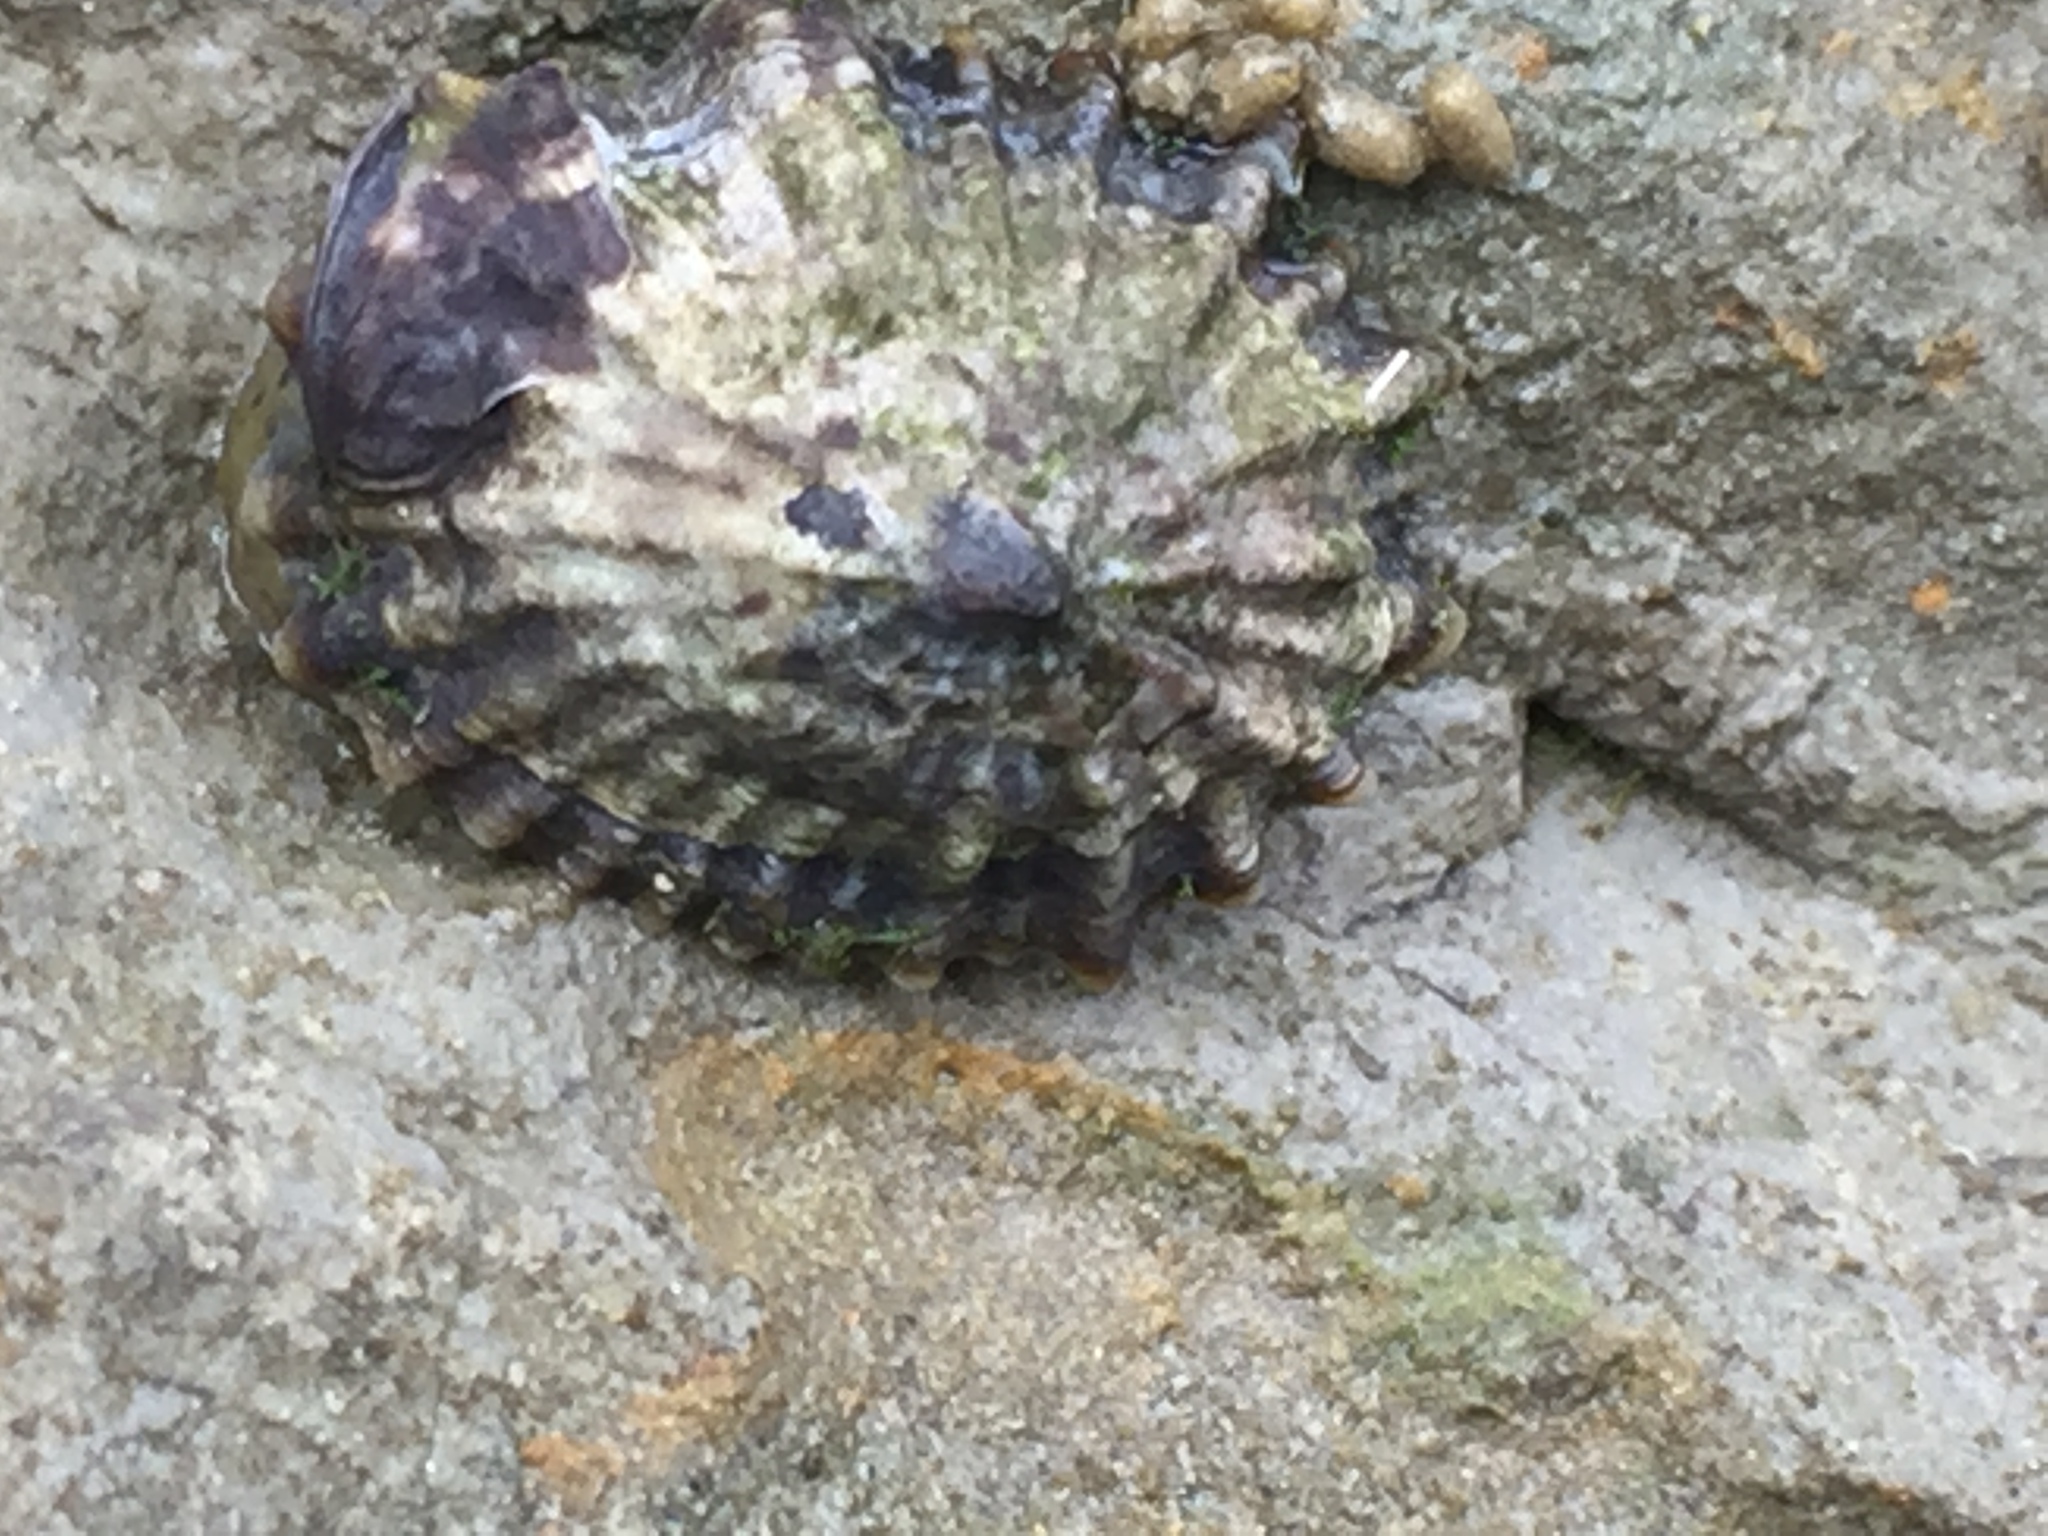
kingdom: Animalia
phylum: Mollusca
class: Gastropoda
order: Siphonariida
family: Siphonariidae
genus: Siphonaria
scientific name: Siphonaria australis
